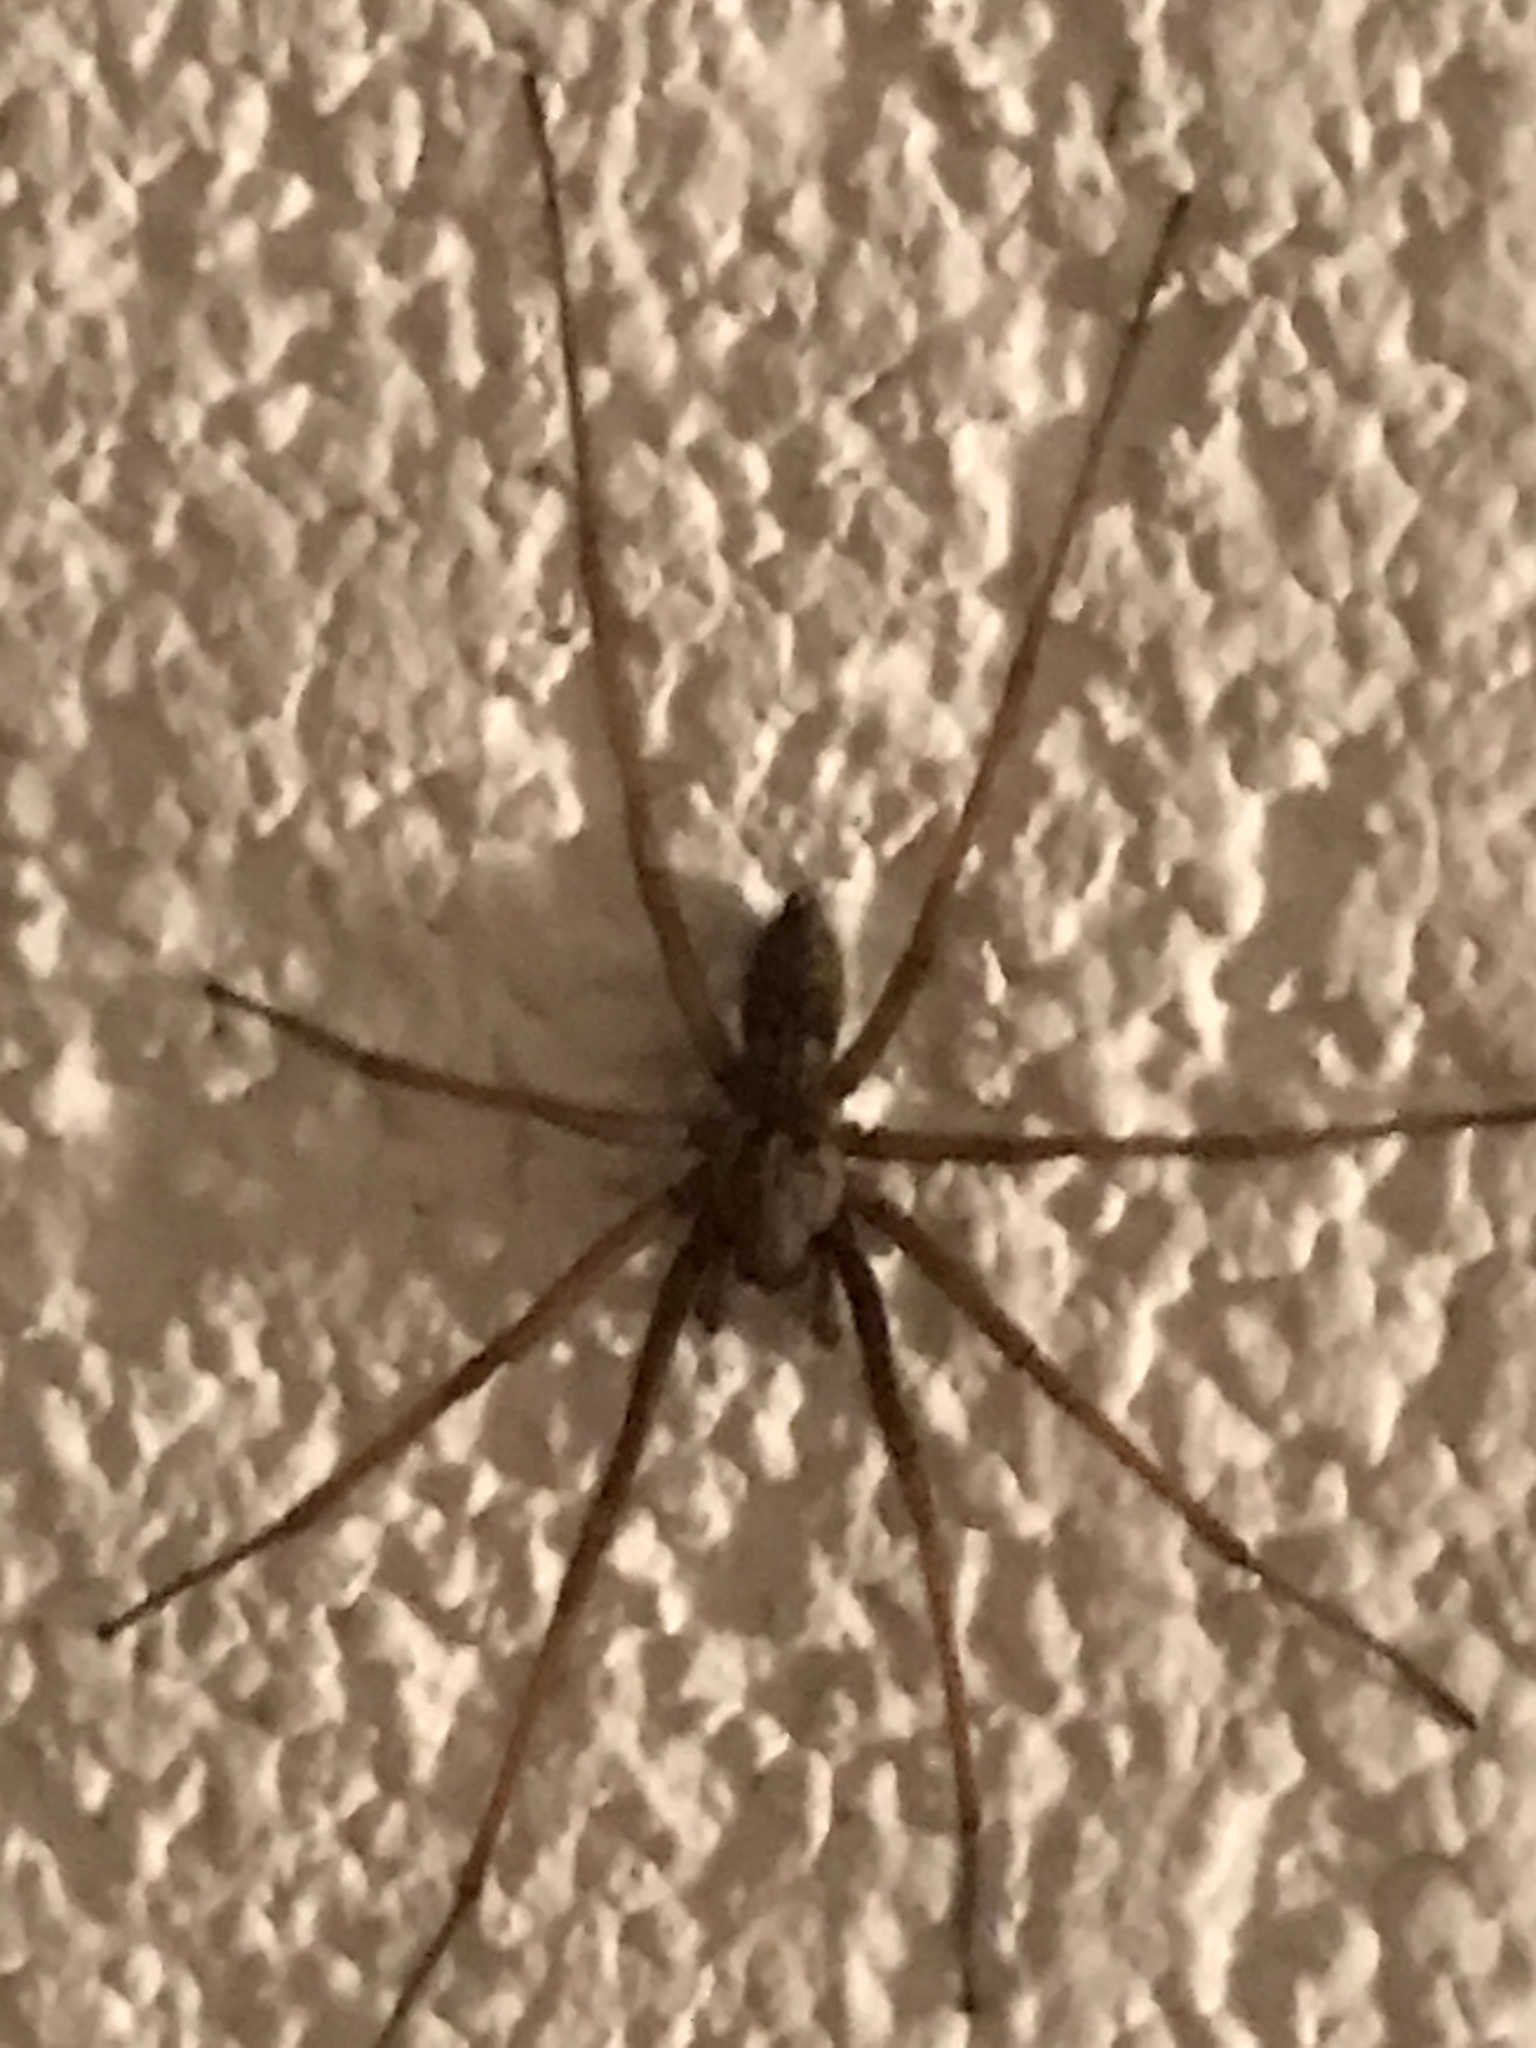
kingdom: Animalia
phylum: Arthropoda
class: Arachnida
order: Araneae
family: Agelenidae
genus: Eratigena
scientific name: Eratigena atrica
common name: Giant house spider
